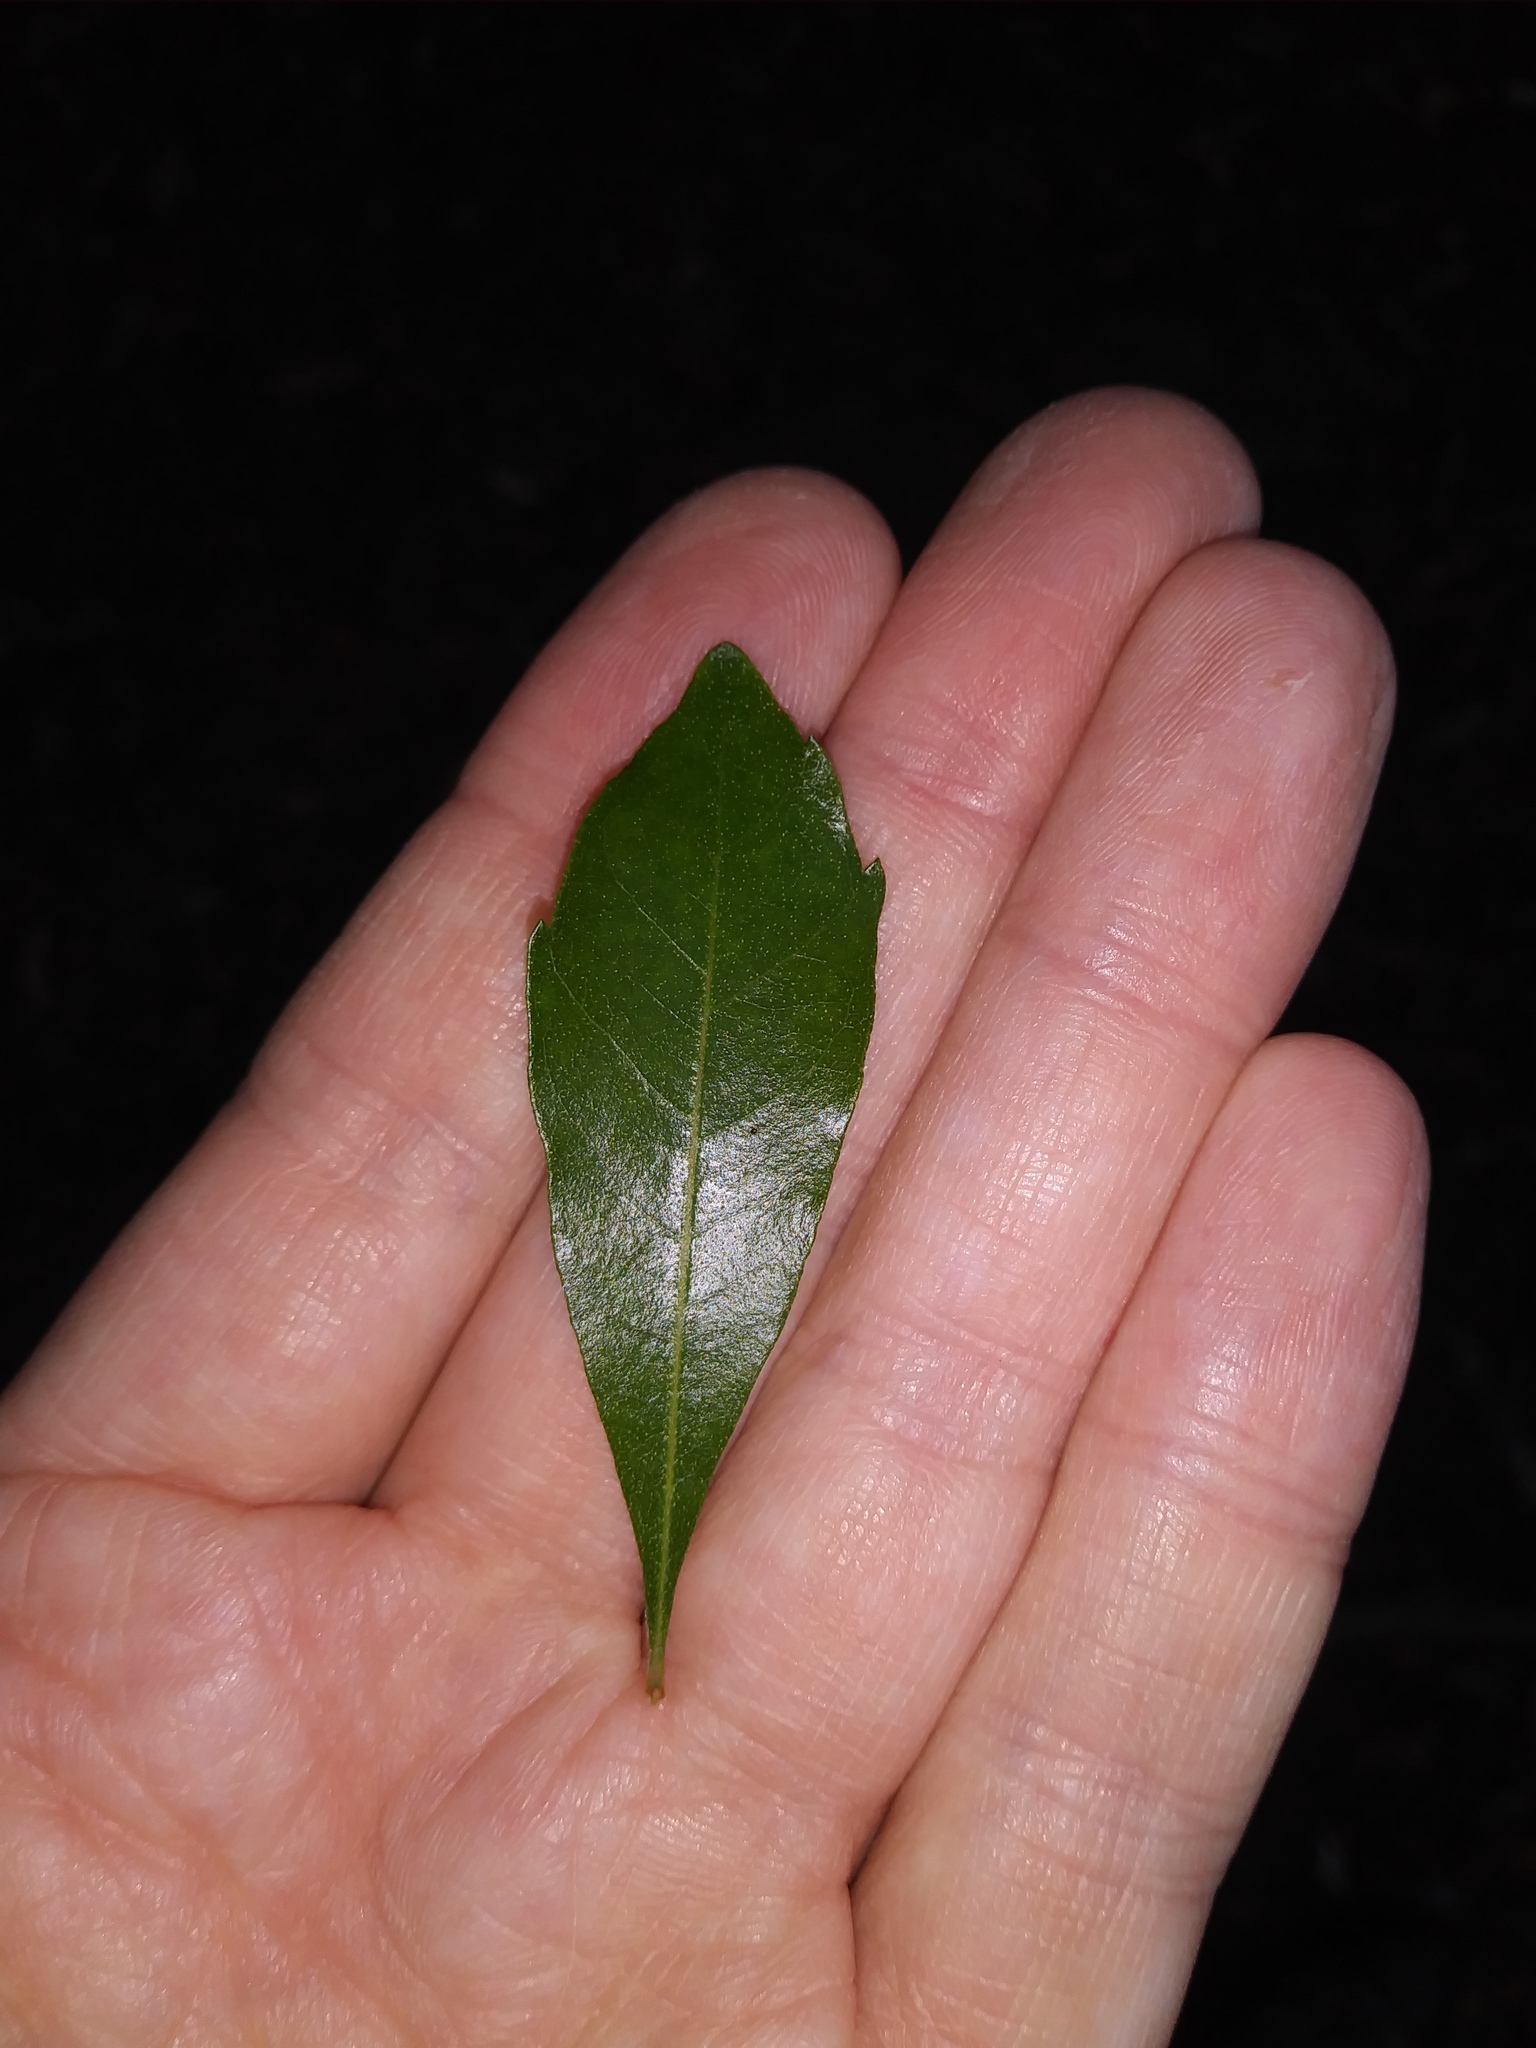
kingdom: Plantae
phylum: Tracheophyta
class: Magnoliopsida
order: Fagales
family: Myricaceae
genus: Morella
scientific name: Morella cerifera
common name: Wax myrtle
